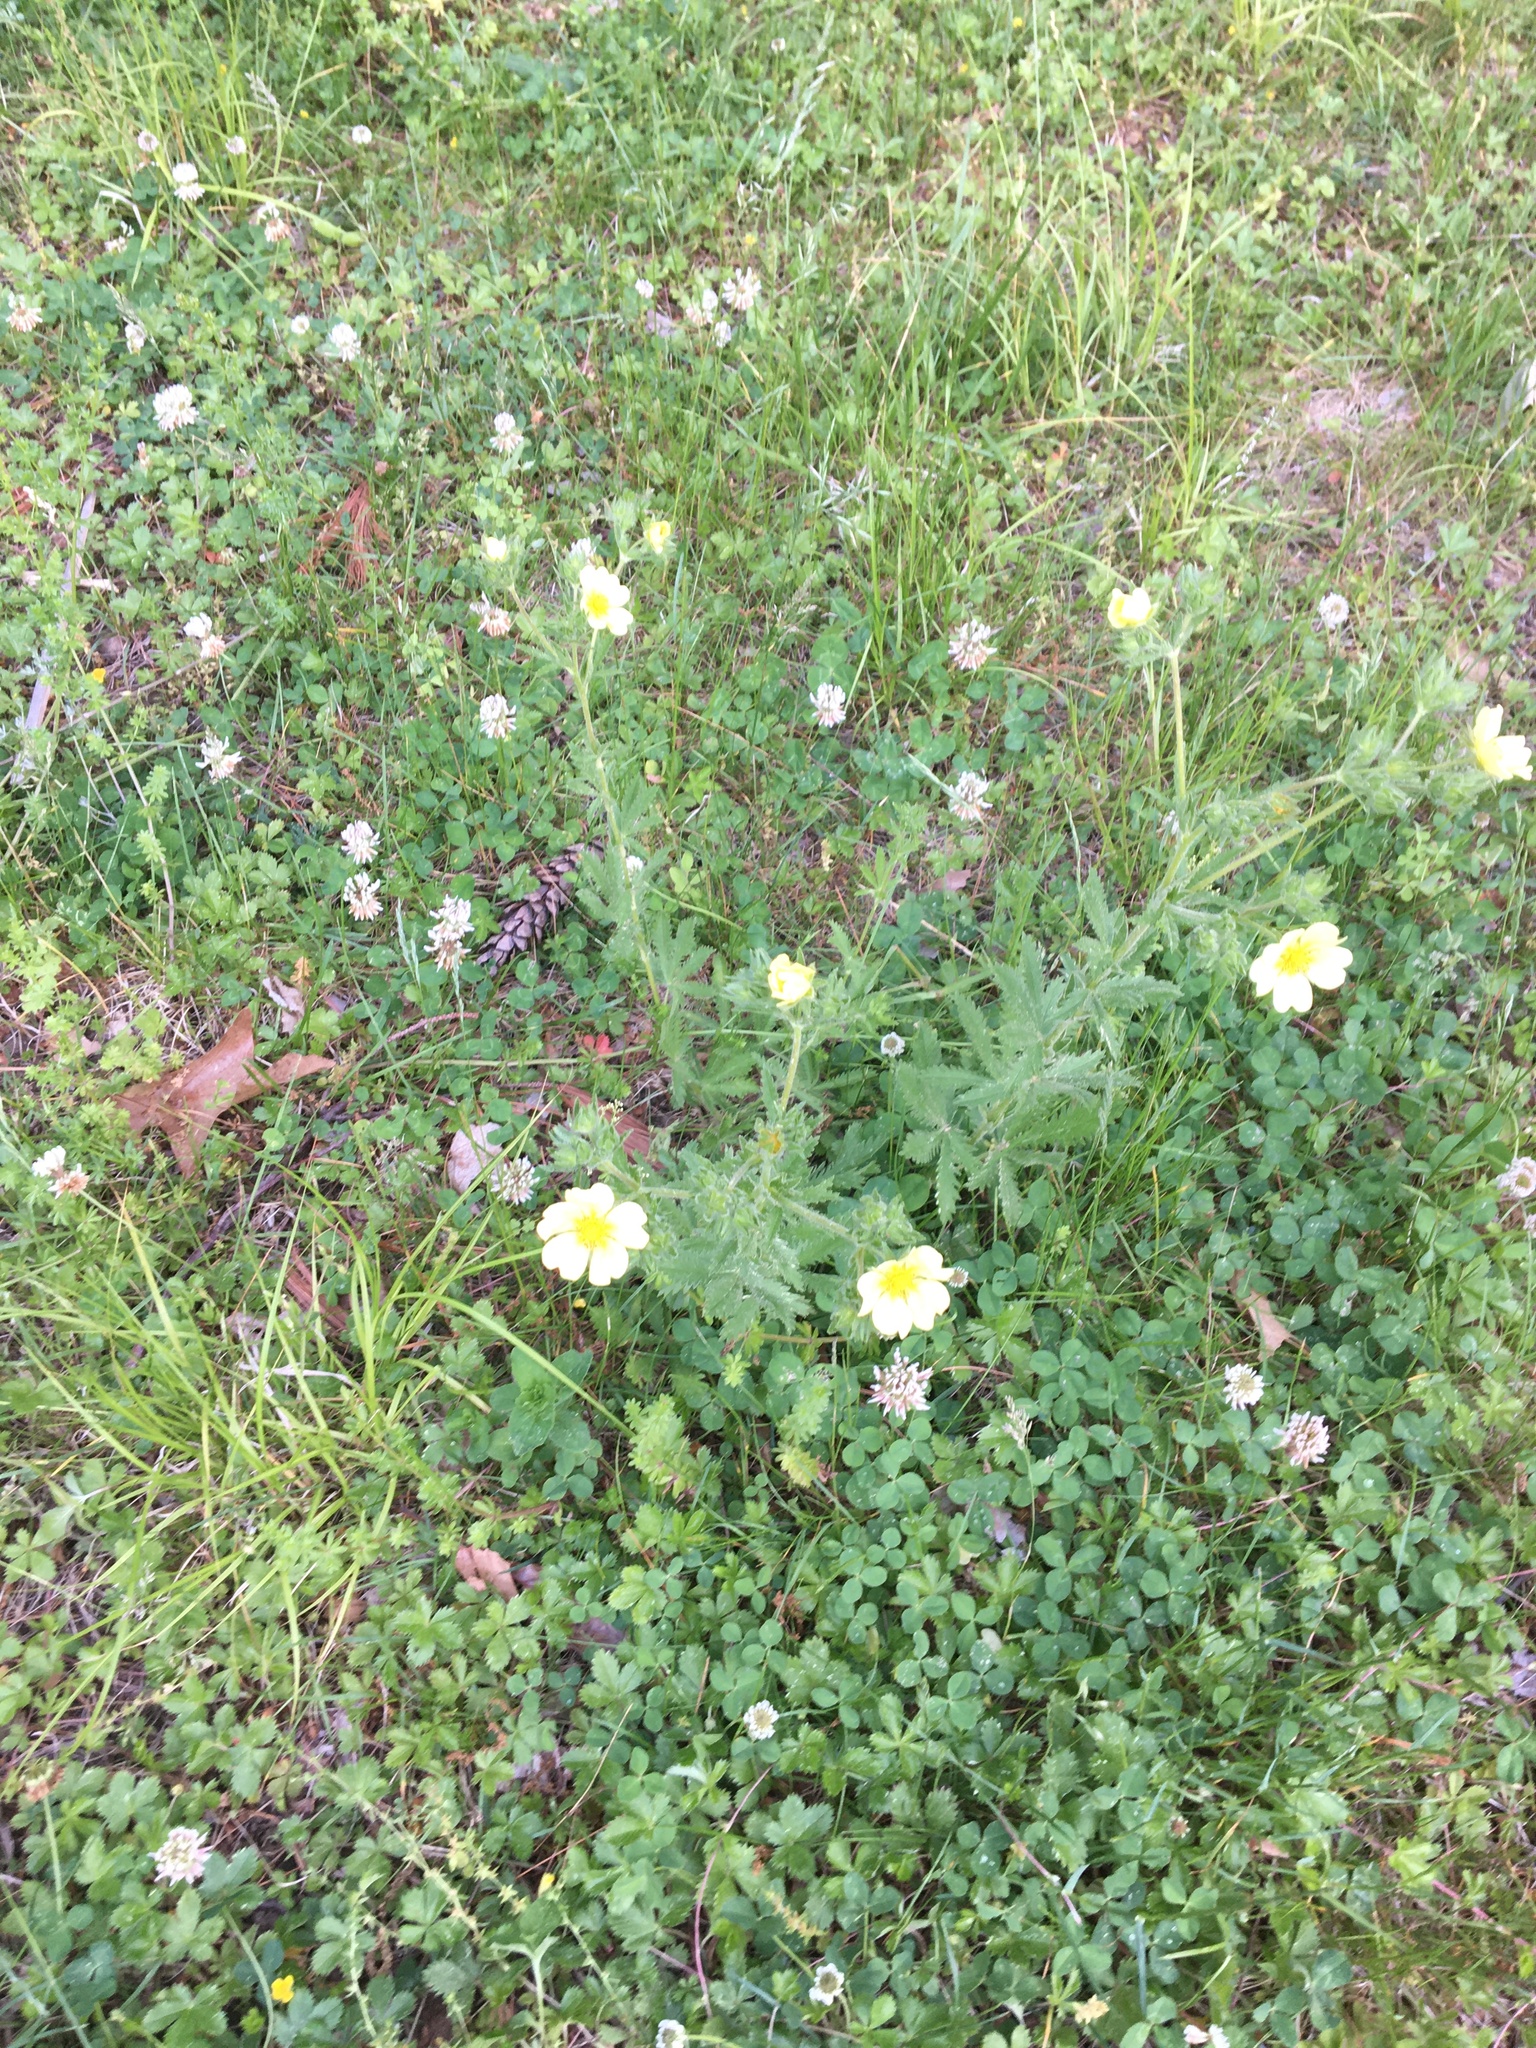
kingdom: Plantae
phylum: Tracheophyta
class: Magnoliopsida
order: Rosales
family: Rosaceae
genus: Potentilla
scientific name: Potentilla recta
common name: Sulphur cinquefoil
